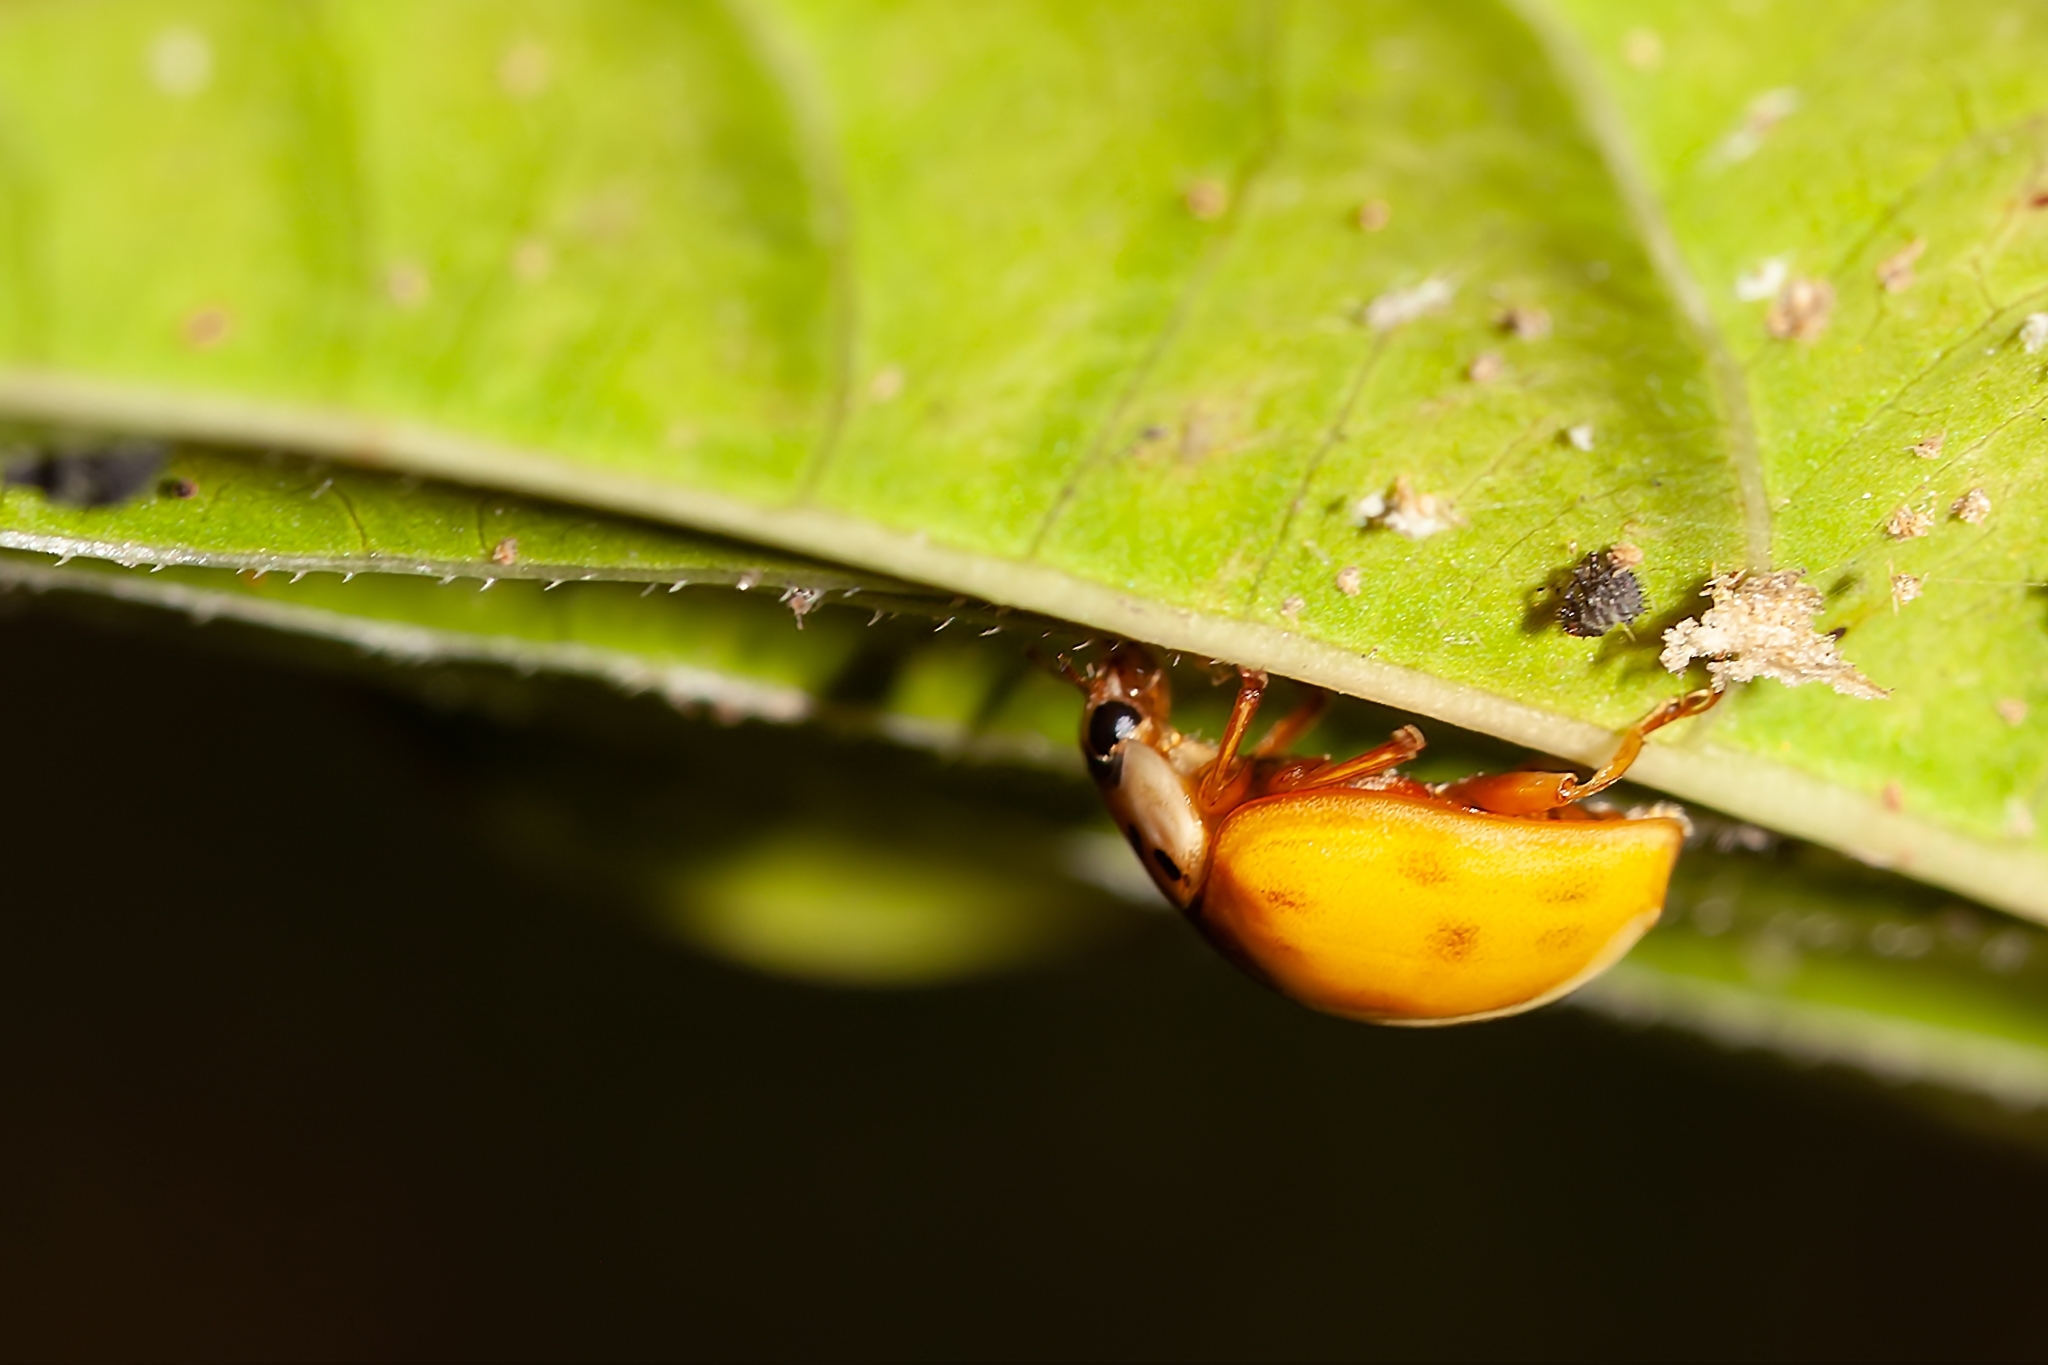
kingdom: Animalia
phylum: Arthropoda
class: Insecta
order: Coleoptera
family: Coccinellidae
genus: Harmonia
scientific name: Harmonia axyridis
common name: Harlequin ladybird
